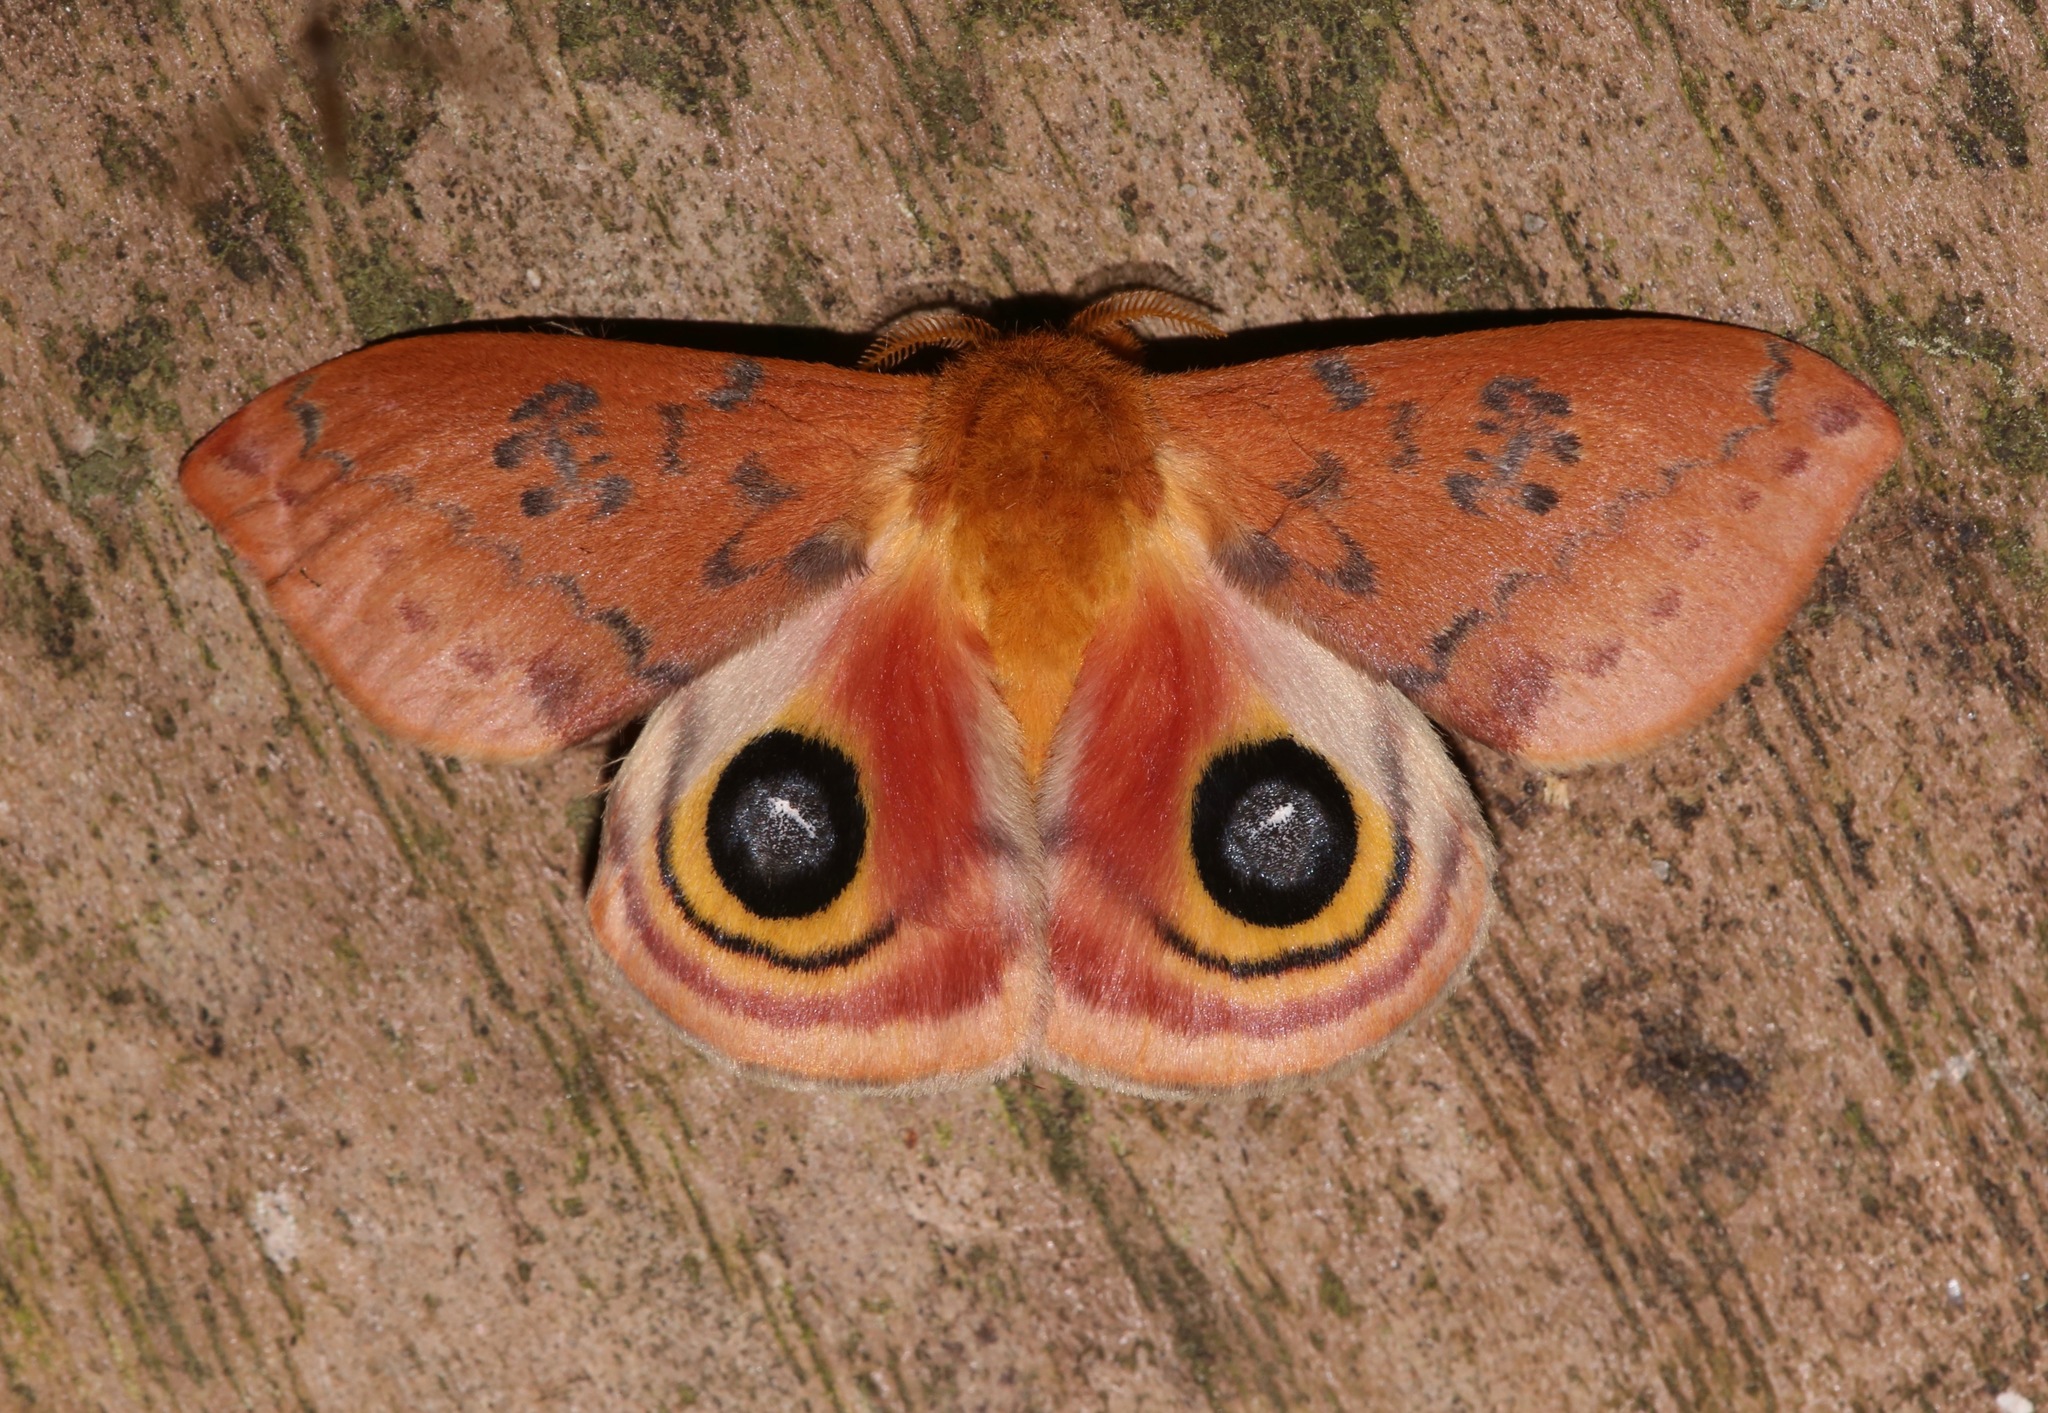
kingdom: Animalia
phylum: Arthropoda
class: Insecta
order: Lepidoptera
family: Saturniidae
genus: Automeris
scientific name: Automeris io
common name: Io moth
